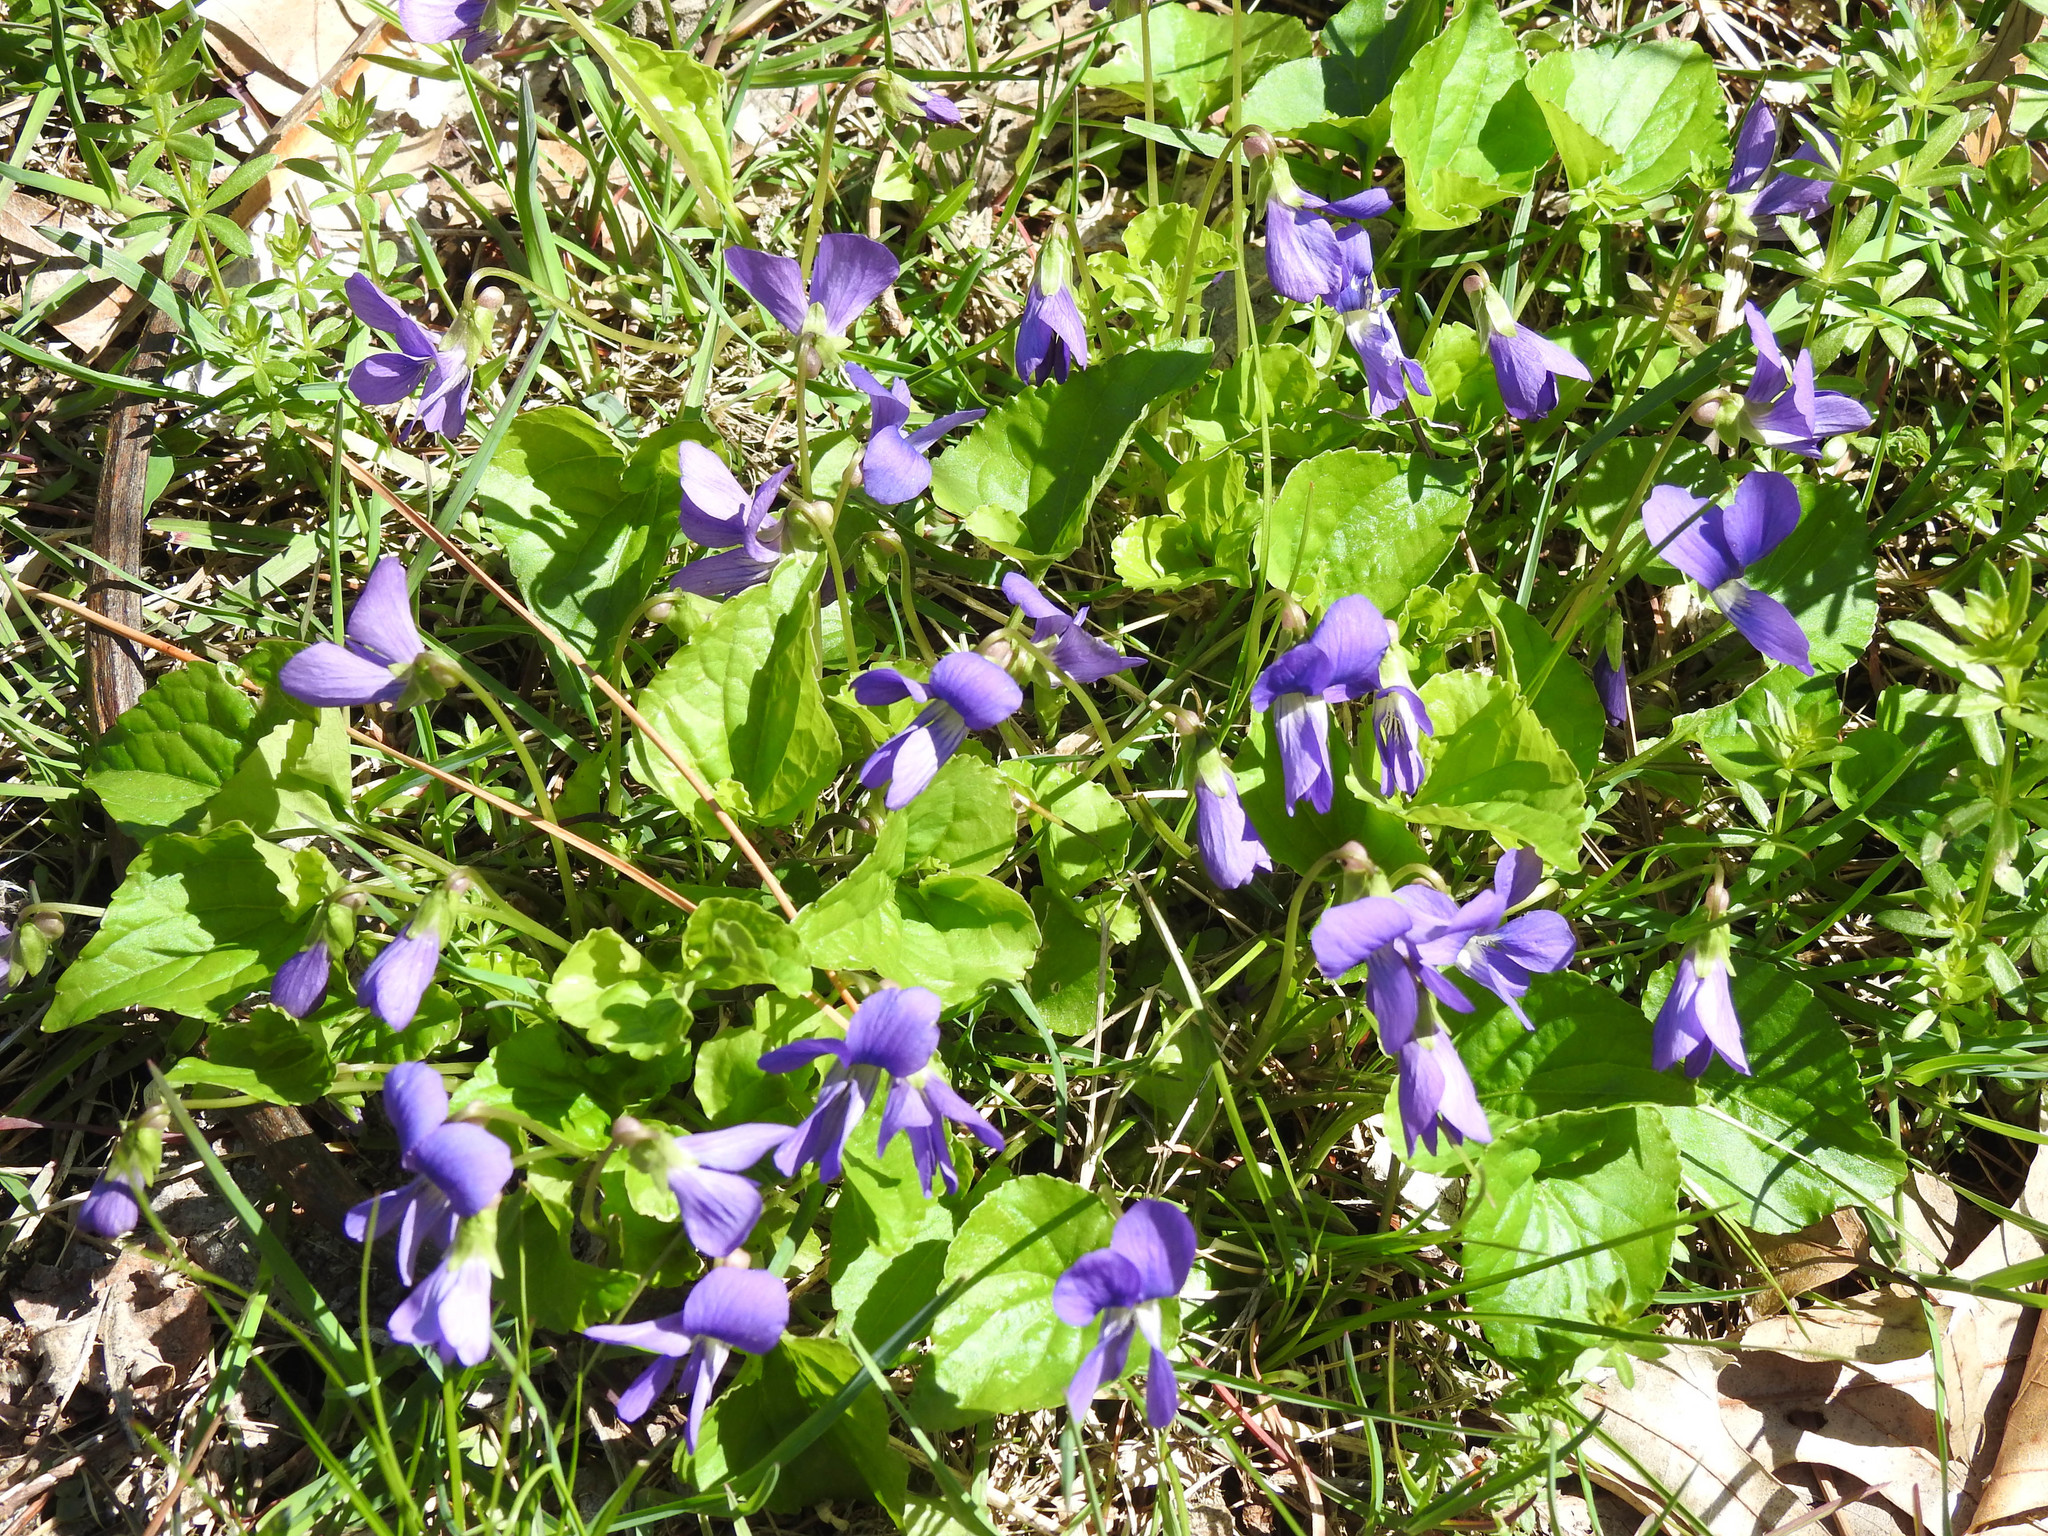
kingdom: Plantae
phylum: Tracheophyta
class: Magnoliopsida
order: Malpighiales
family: Violaceae
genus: Viola
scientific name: Viola sororia
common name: Dooryard violet
